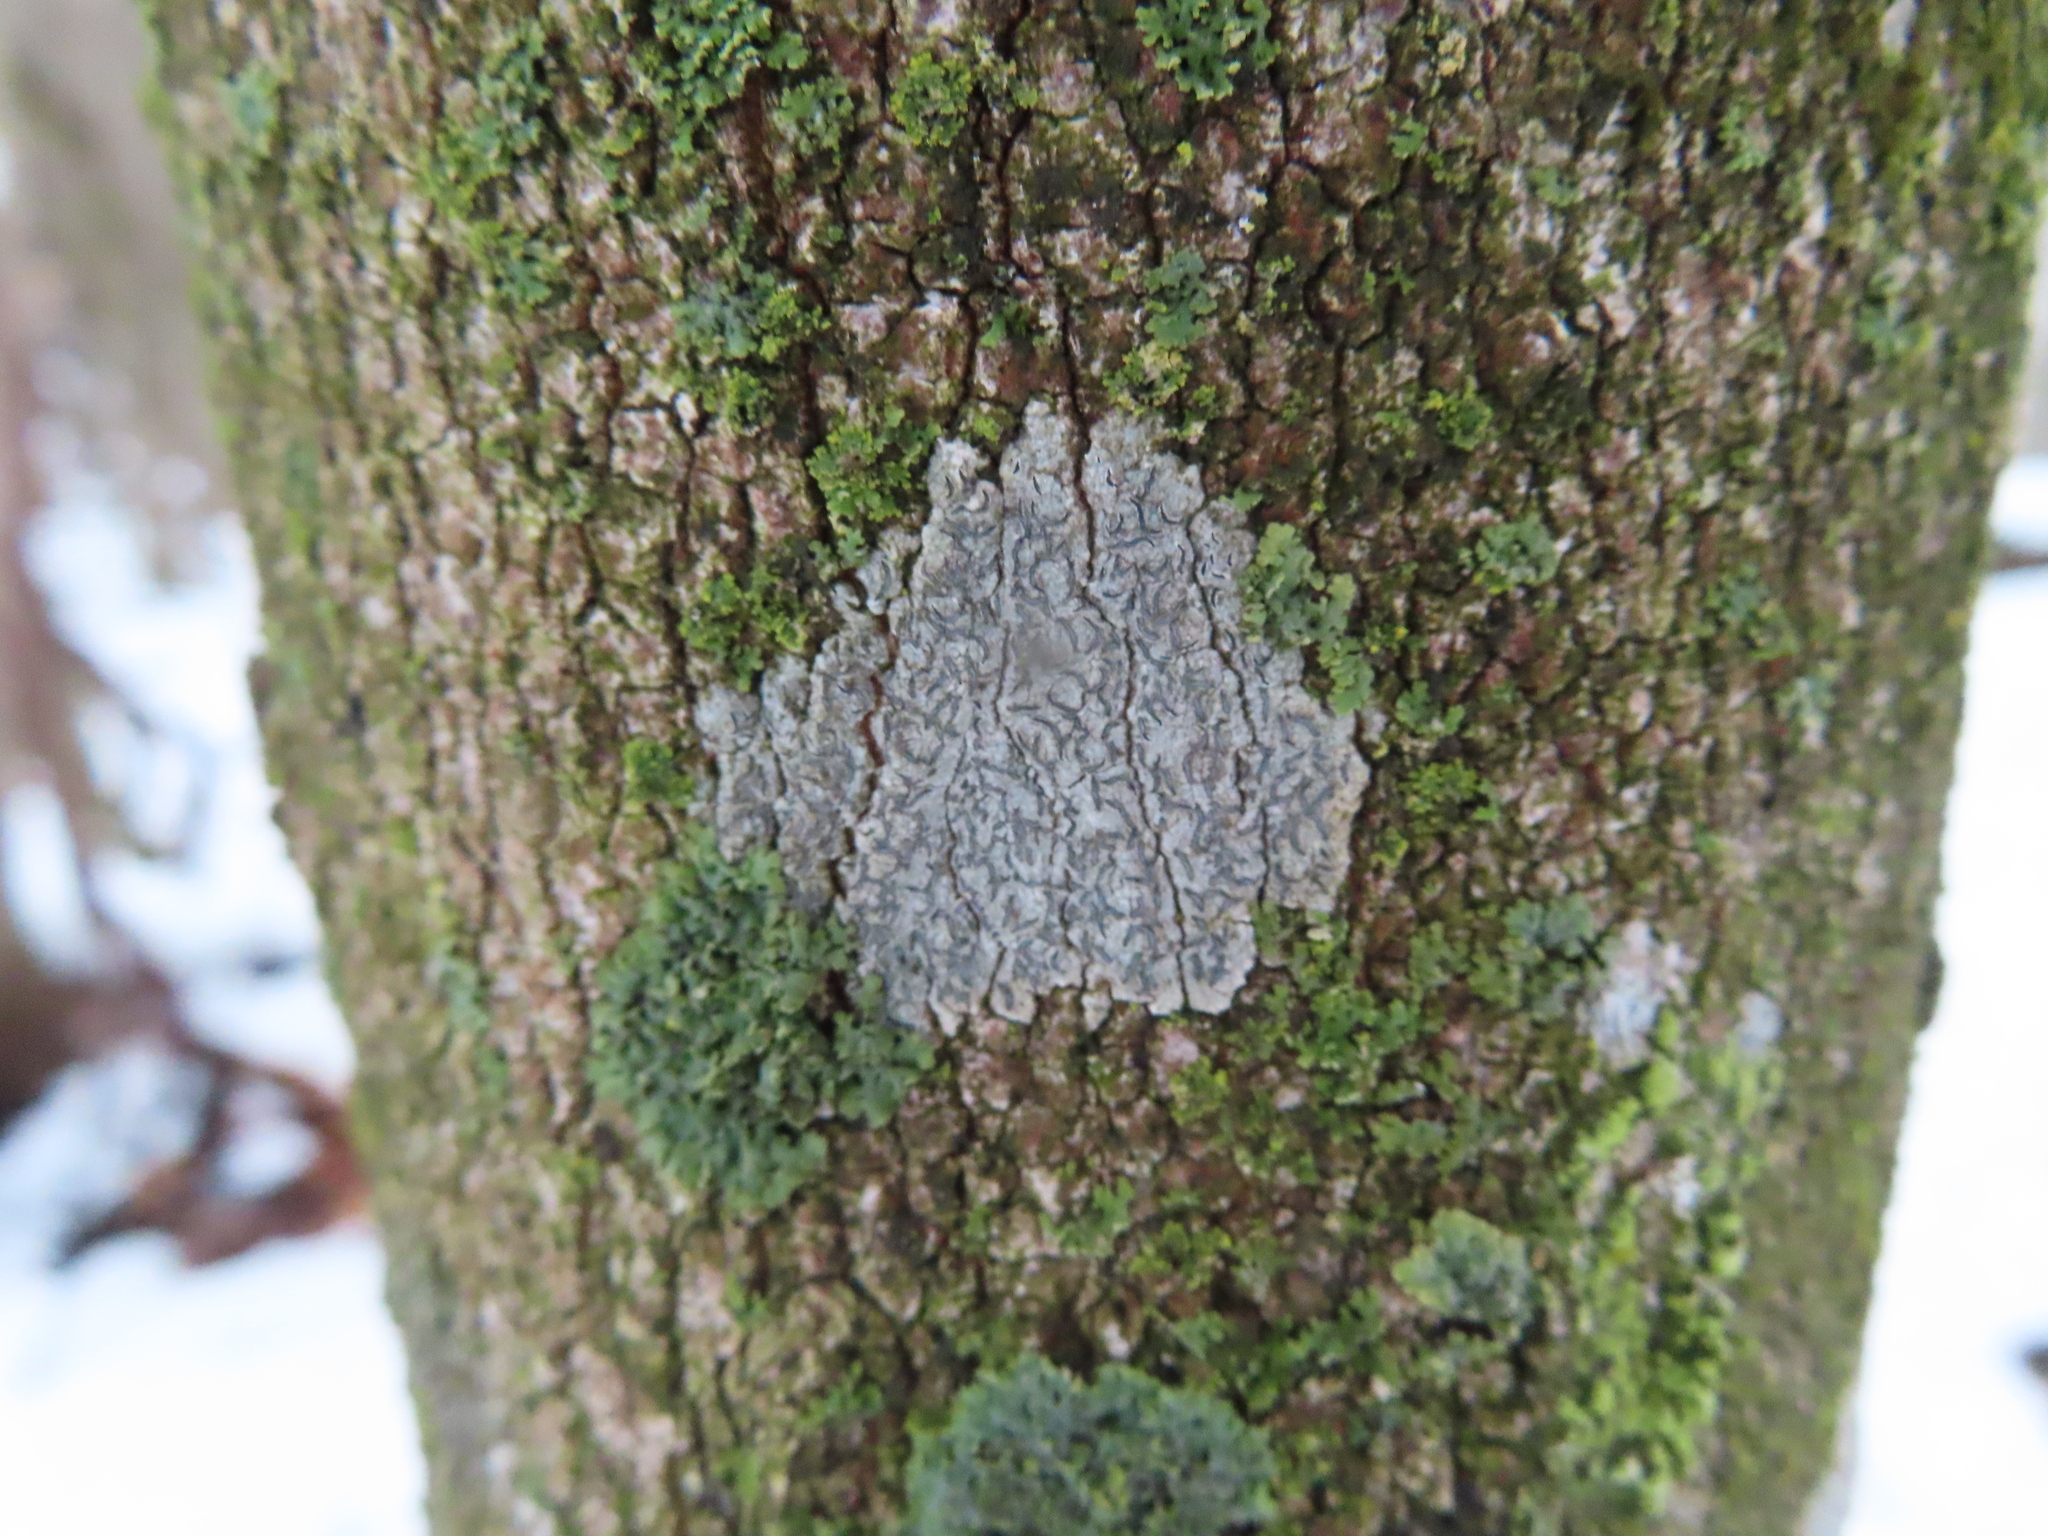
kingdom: Fungi
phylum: Ascomycota
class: Lecanoromycetes
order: Ostropales
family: Graphidaceae
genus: Graphis
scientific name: Graphis scripta
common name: Script lichen
